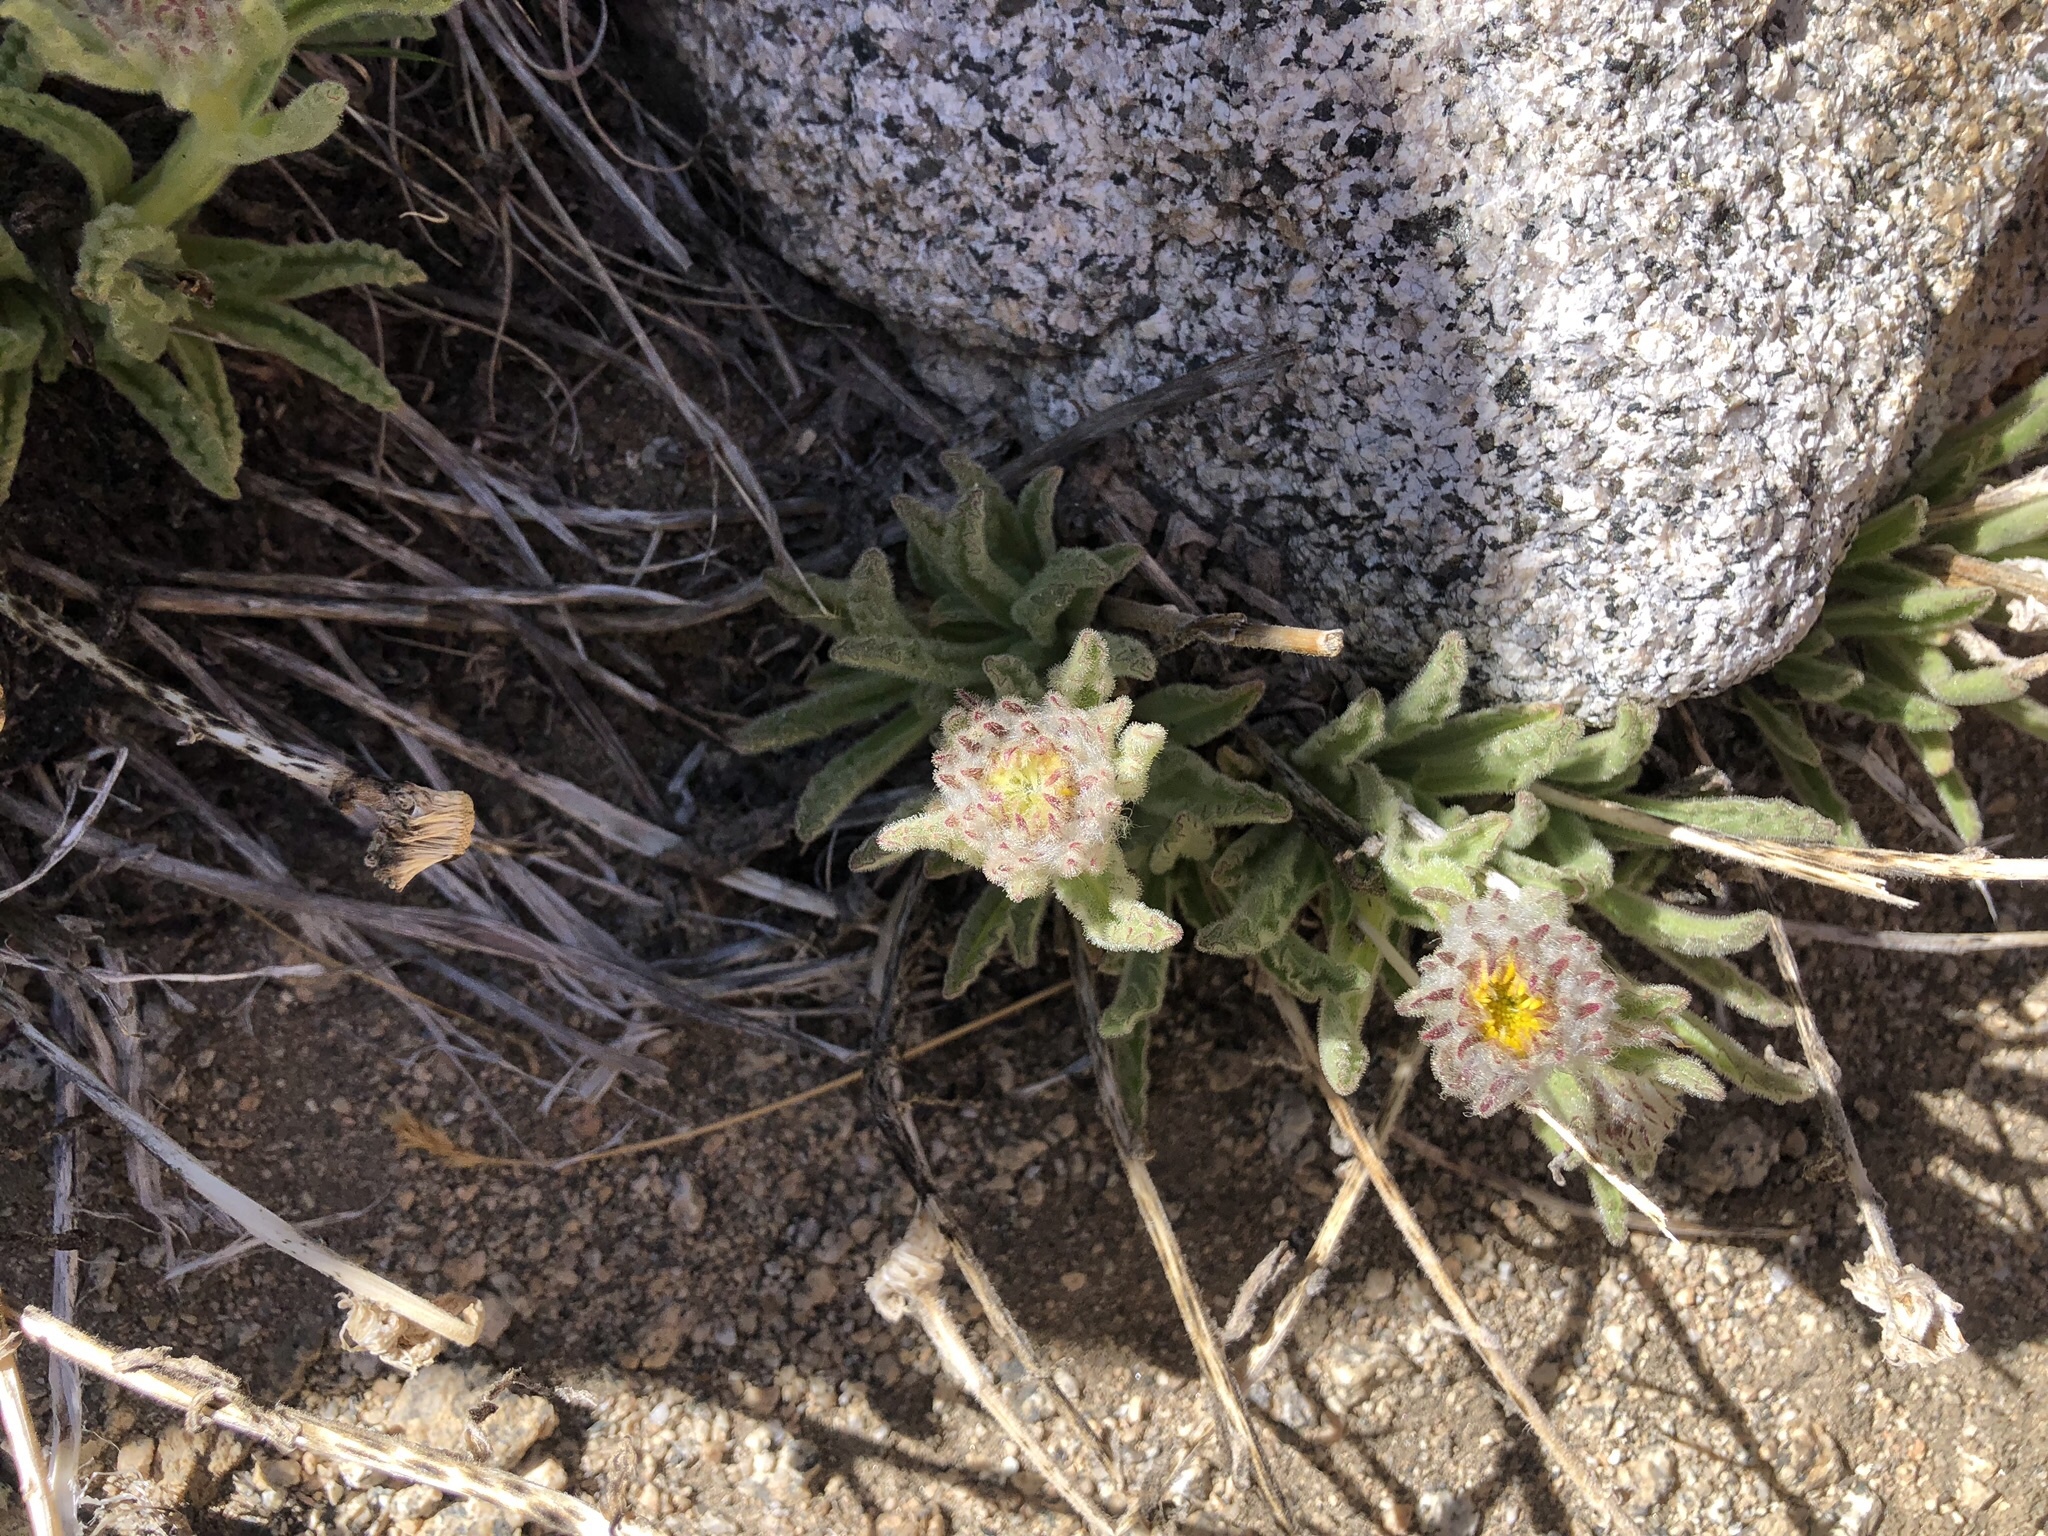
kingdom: Plantae
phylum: Tracheophyta
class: Magnoliopsida
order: Asterales
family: Asteraceae
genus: Hulsea
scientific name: Hulsea algida
